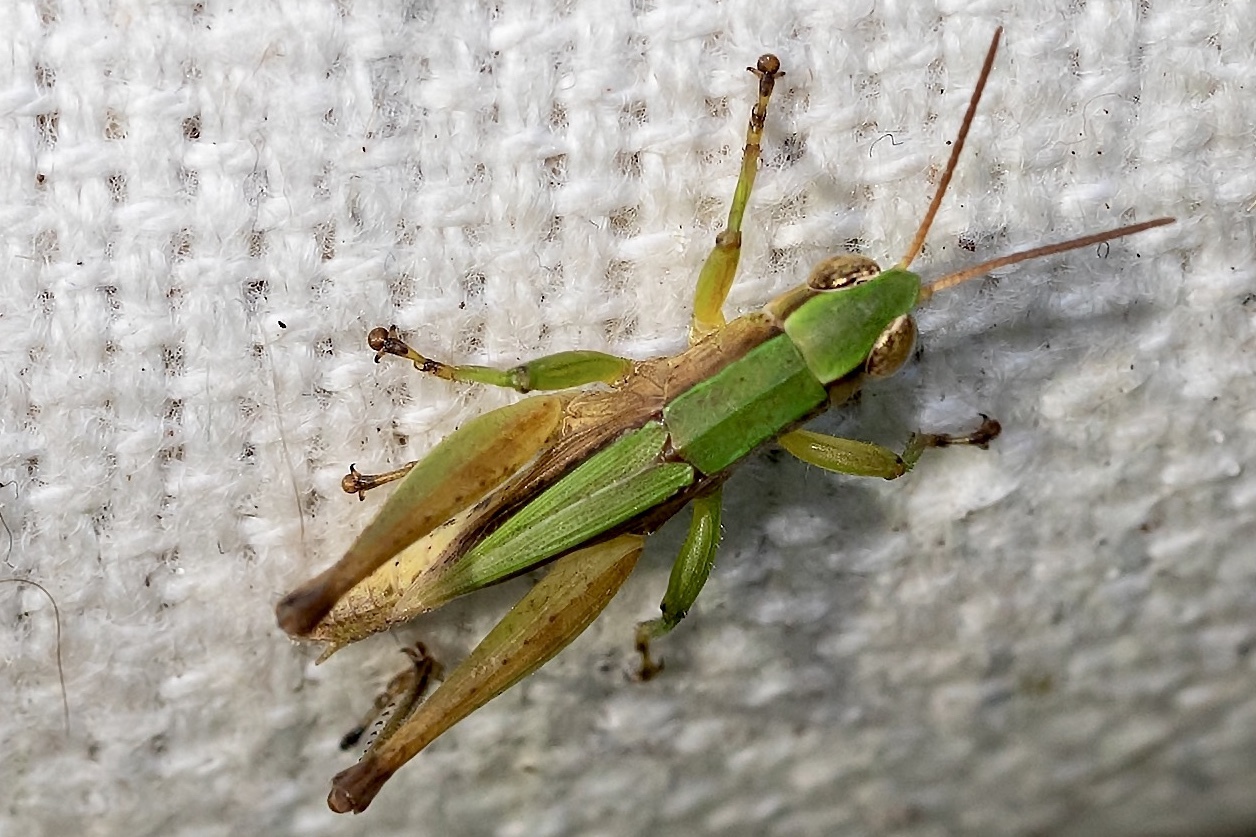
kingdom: Animalia
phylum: Arthropoda
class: Insecta
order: Orthoptera
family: Acrididae
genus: Dichromorpha
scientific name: Dichromorpha viridis
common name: Short-winged green grasshopper
